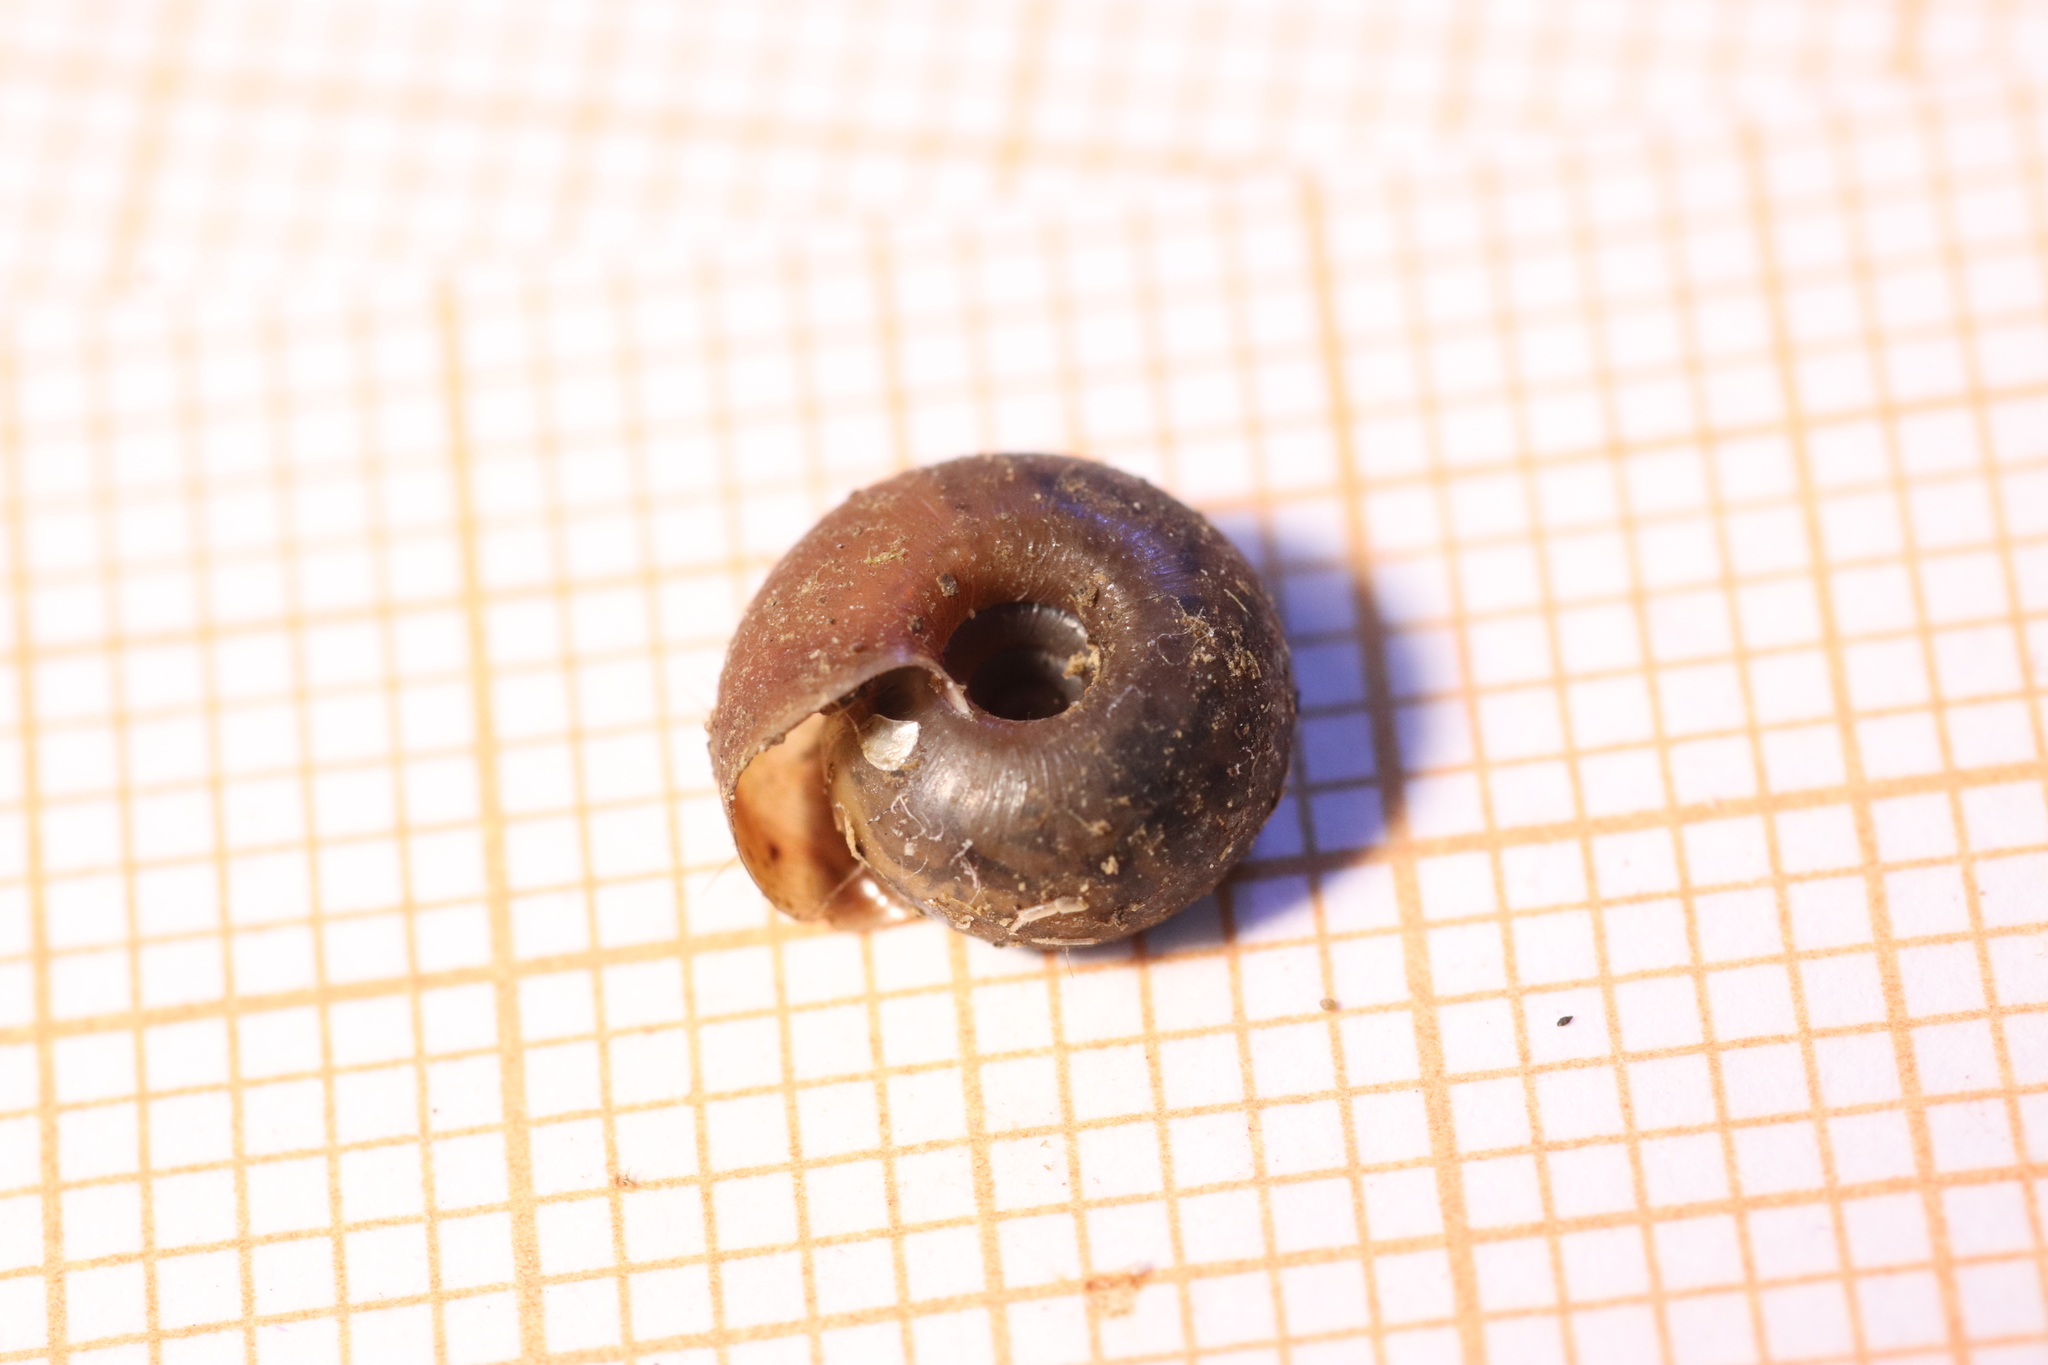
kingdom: Animalia
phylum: Mollusca
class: Gastropoda
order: Stylommatophora
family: Helicodontidae
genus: Helicodonta
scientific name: Helicodonta obvoluta
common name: Cheese snail
